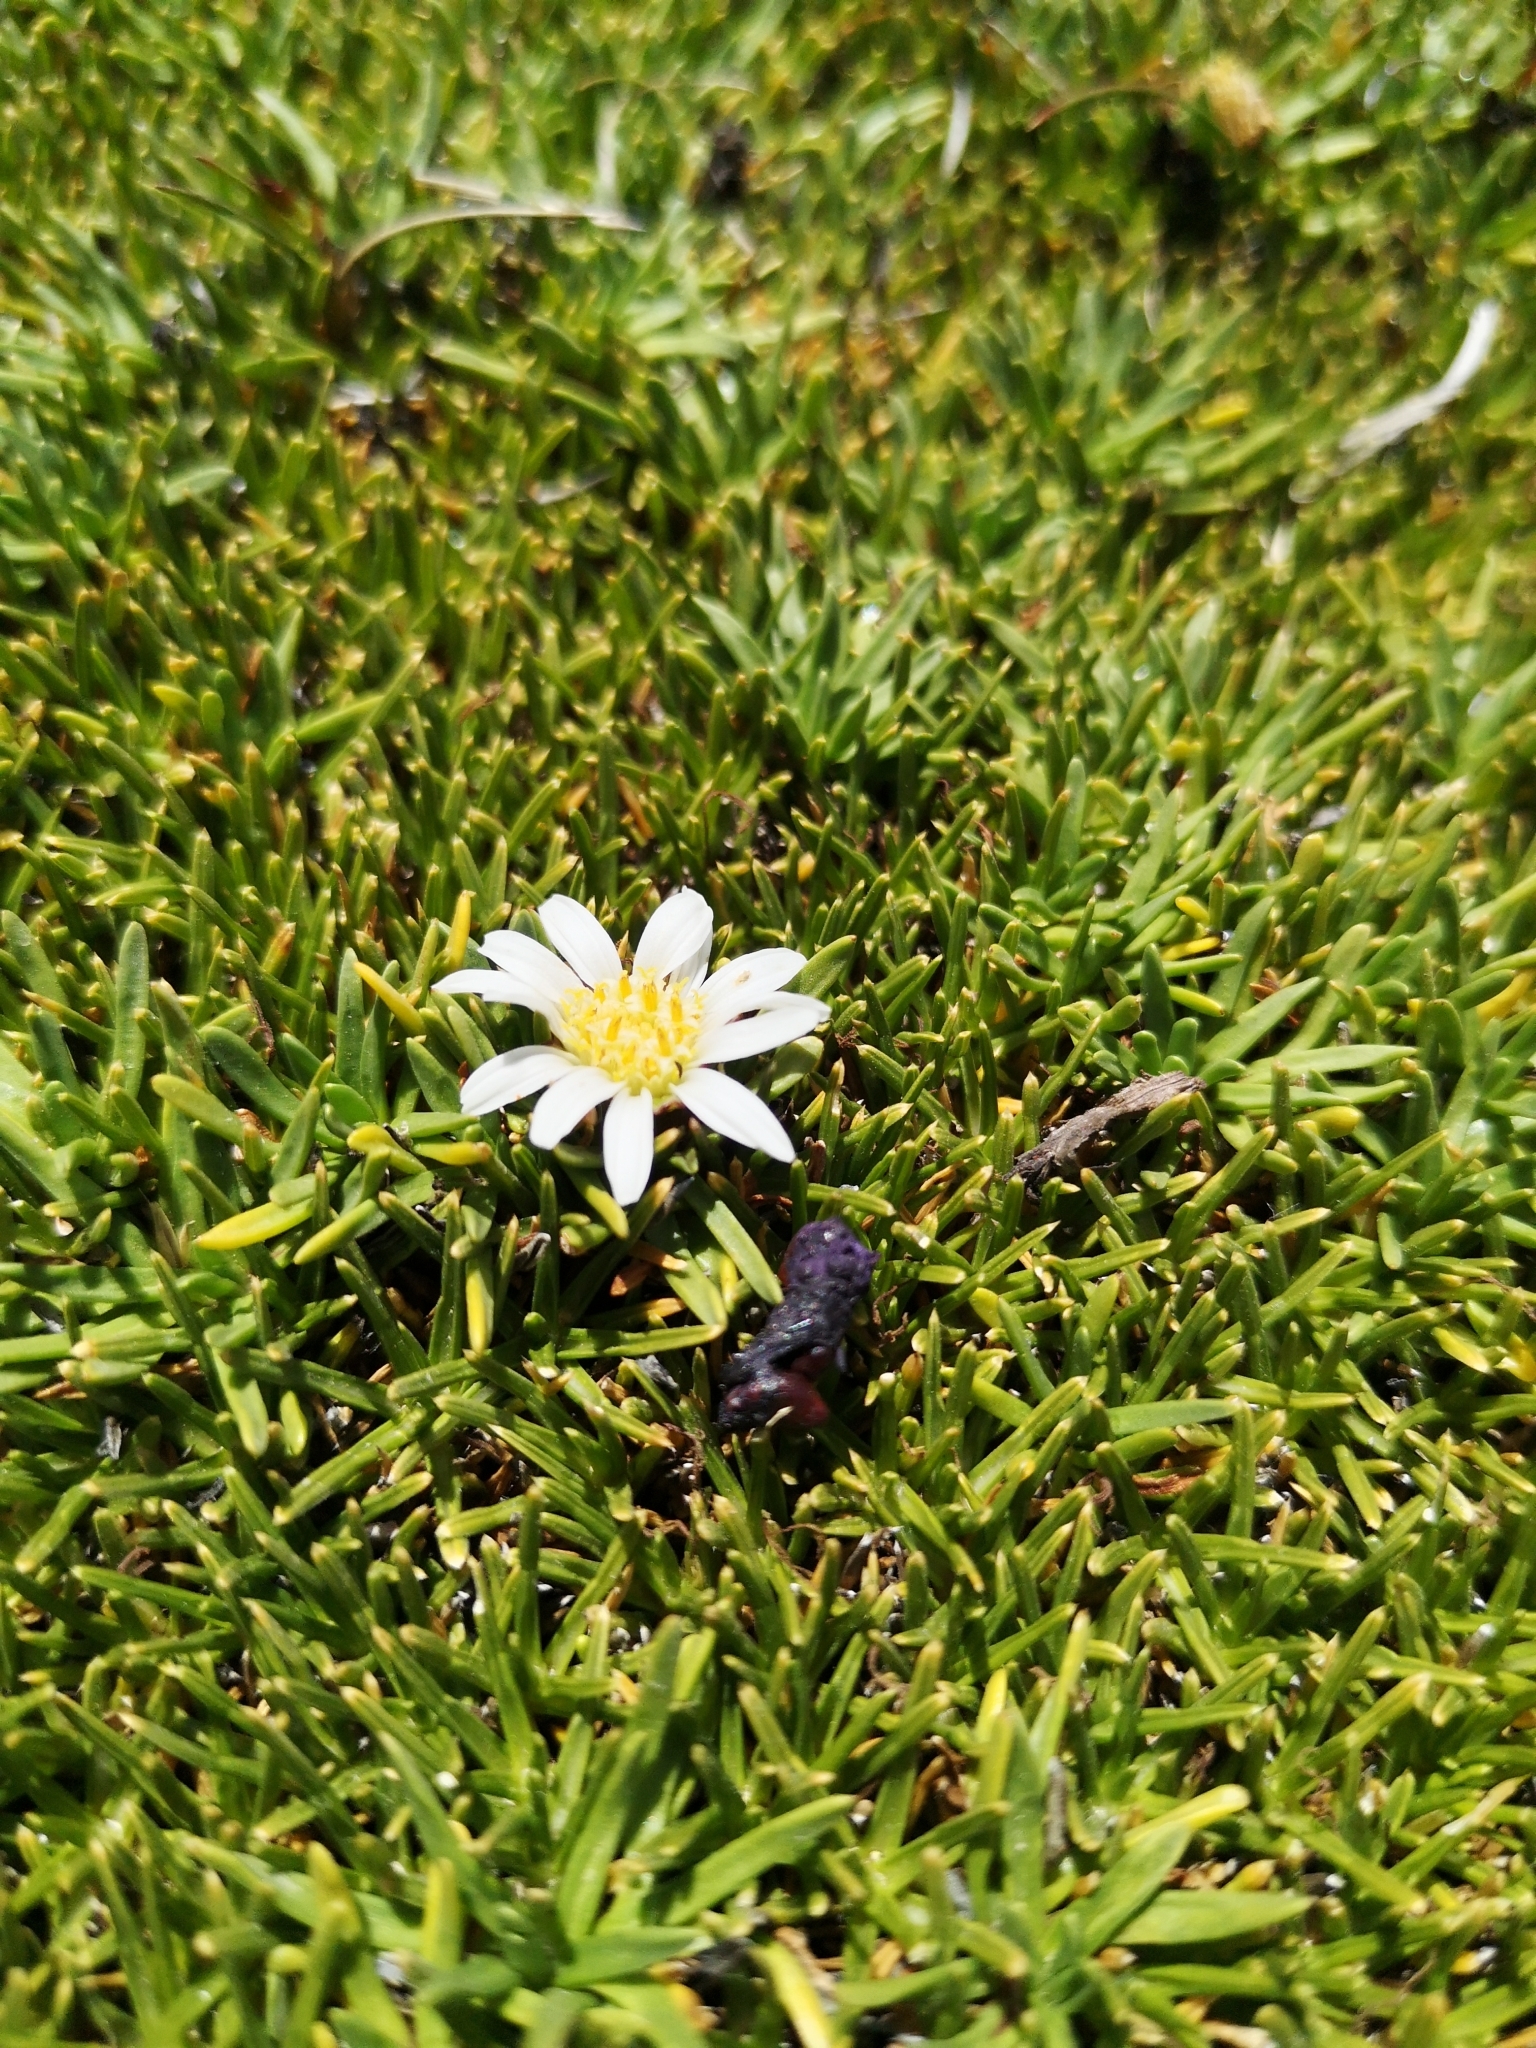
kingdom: Plantae
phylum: Tracheophyta
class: Magnoliopsida
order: Asterales
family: Asteraceae
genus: Rockhausenia
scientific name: Rockhausenia pygmaea
